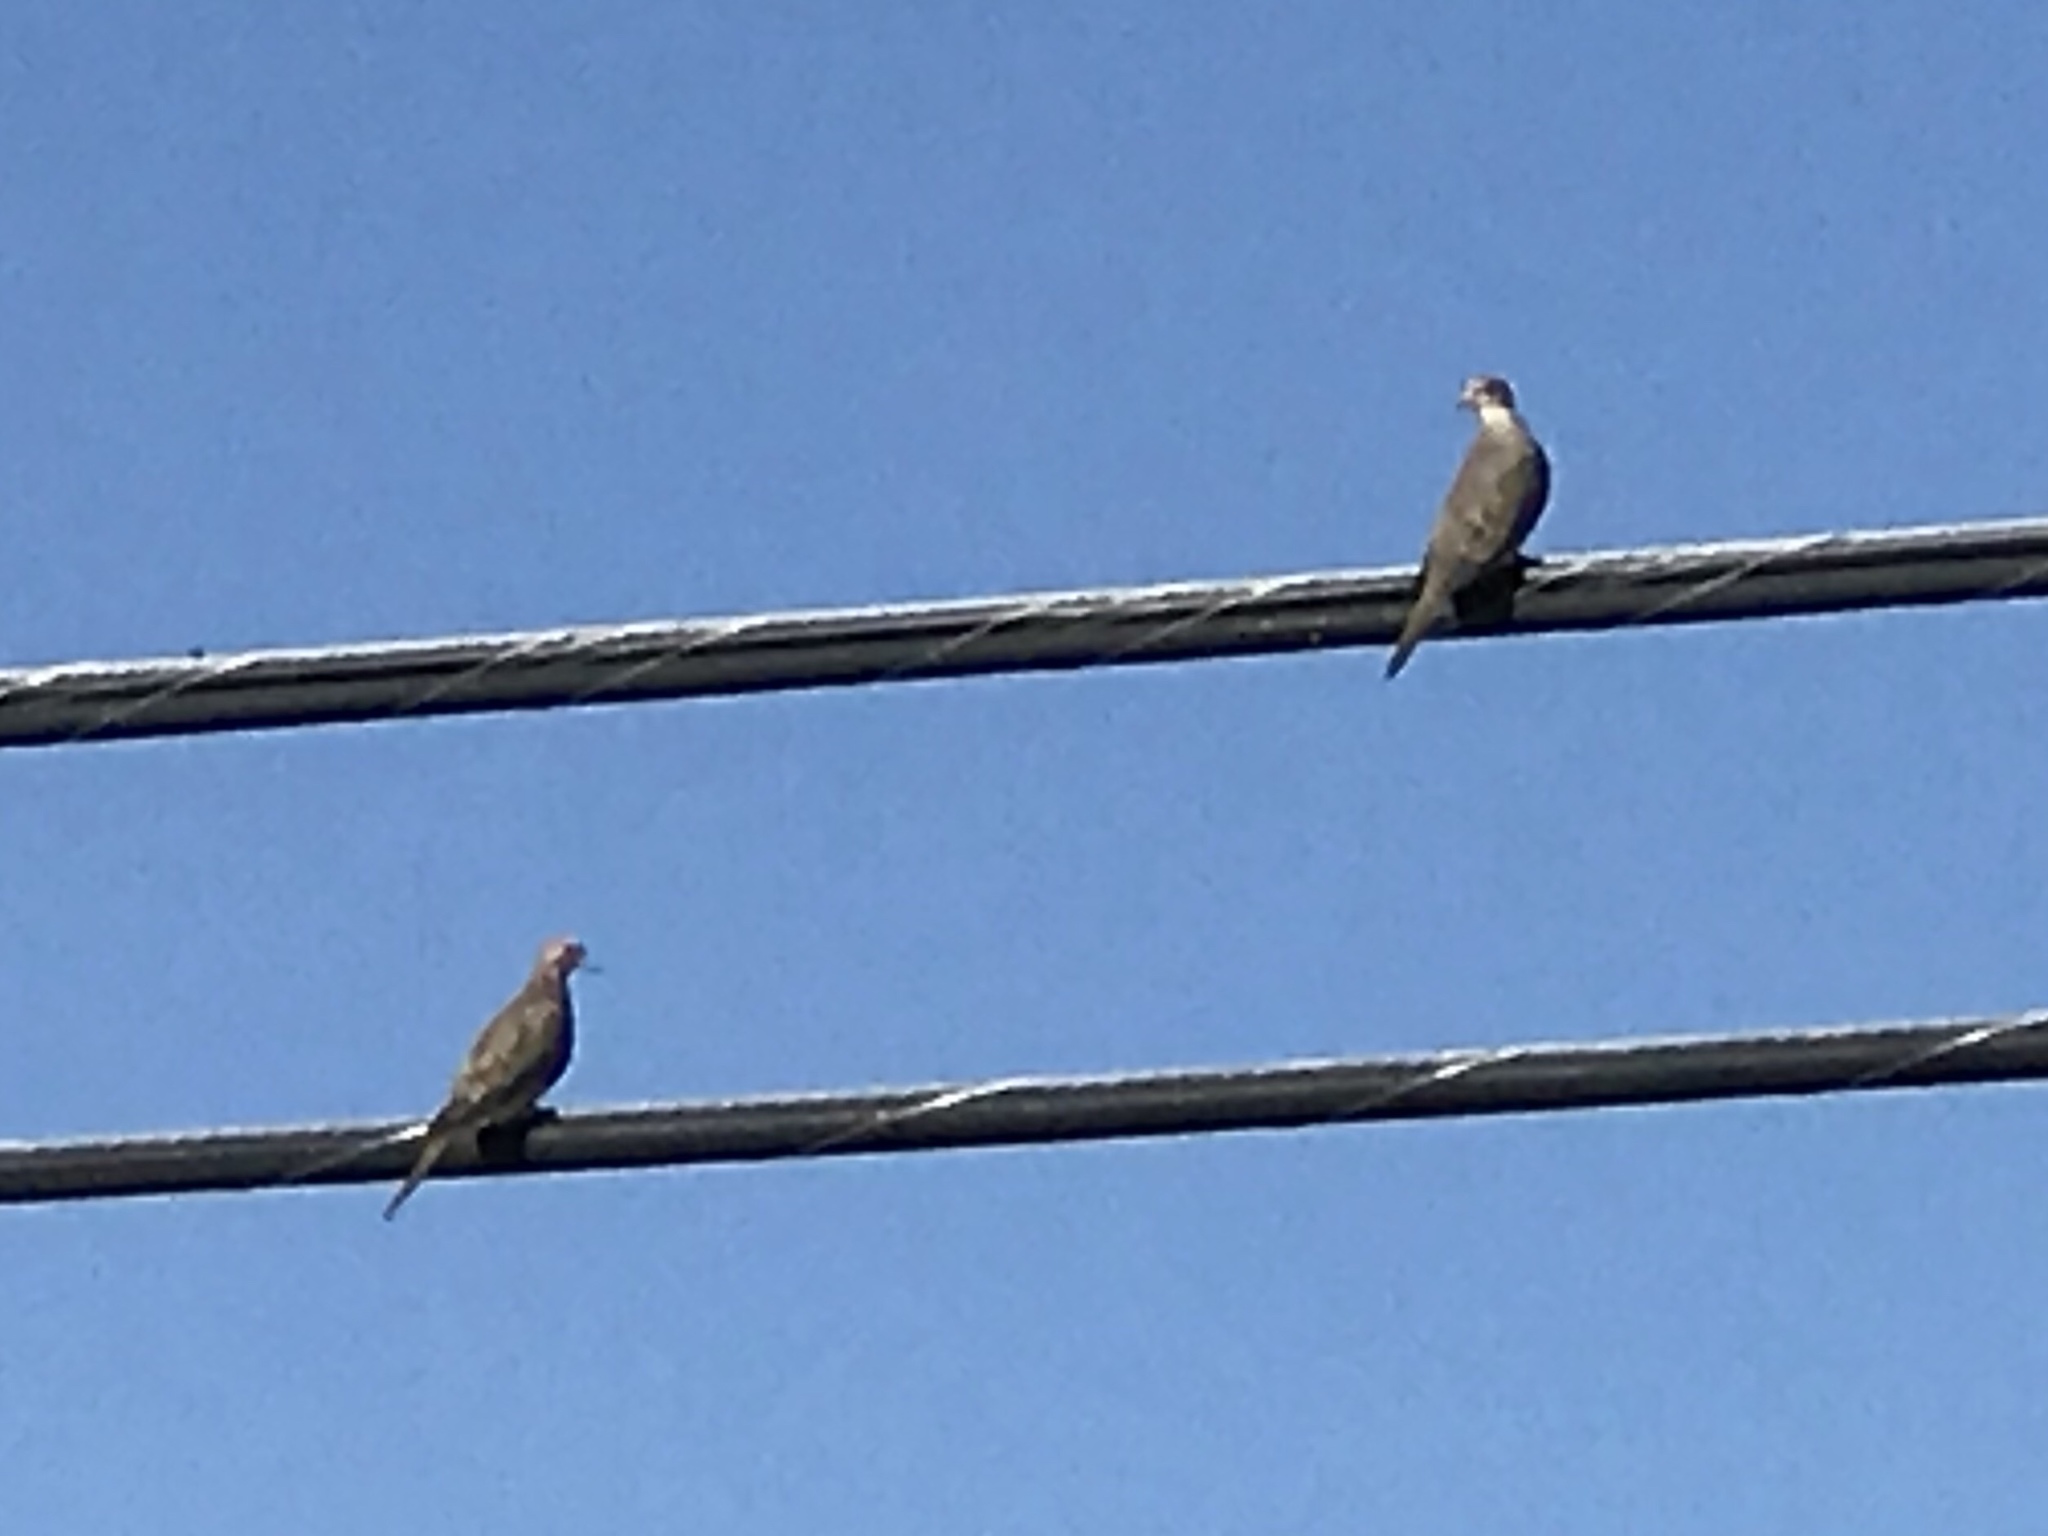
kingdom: Animalia
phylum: Chordata
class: Aves
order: Columbiformes
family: Columbidae
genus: Zenaida
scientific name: Zenaida macroura
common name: Mourning dove
